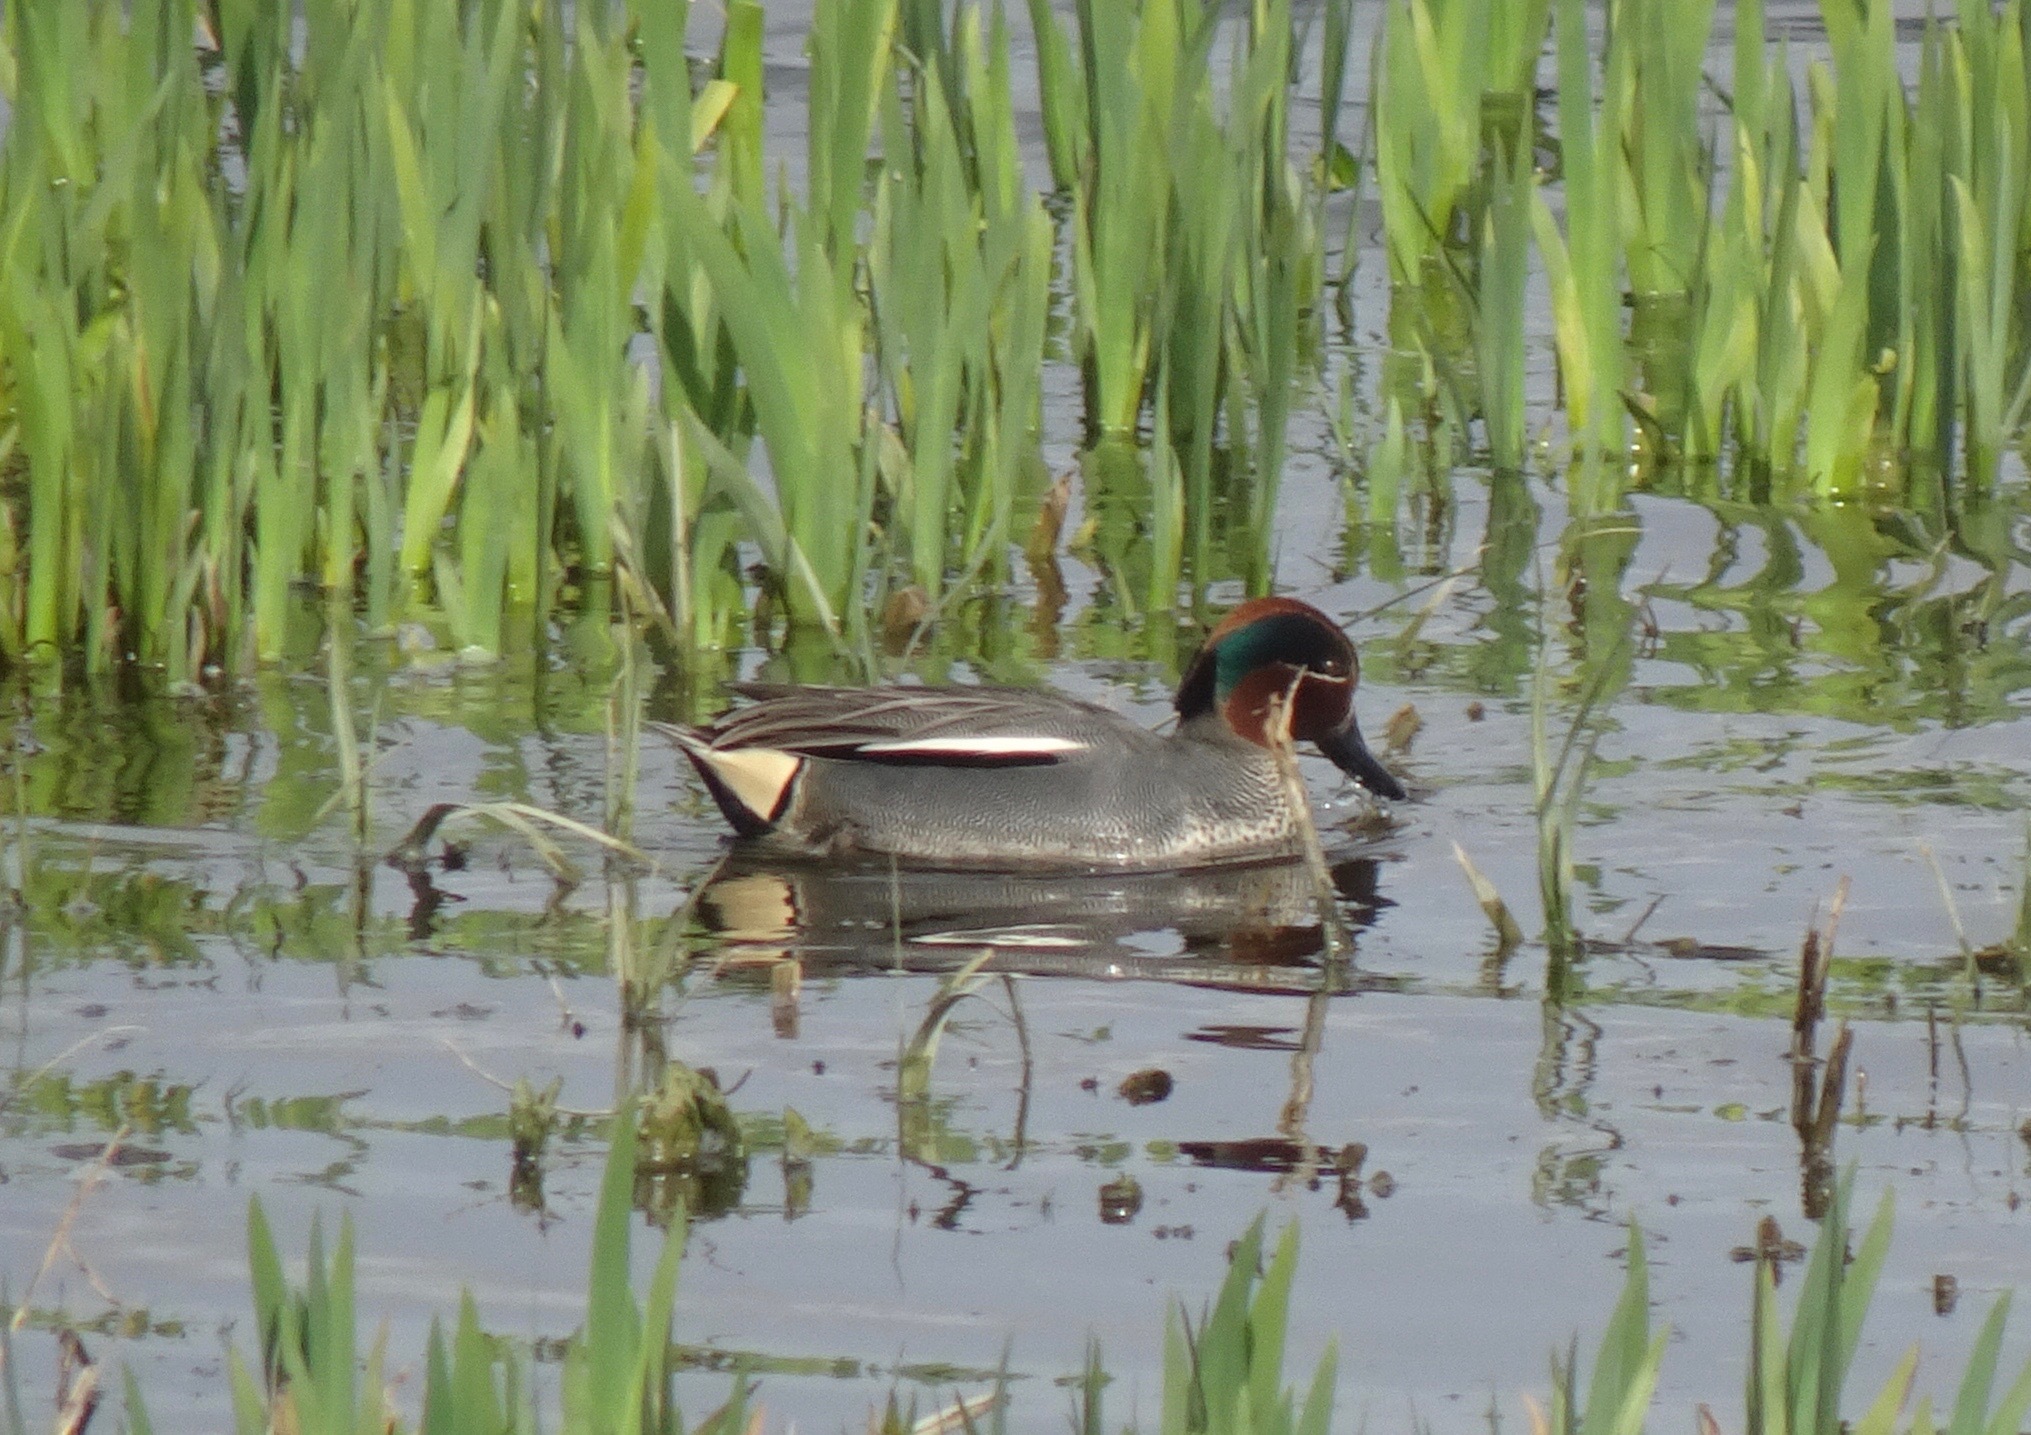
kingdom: Animalia
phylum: Chordata
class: Aves
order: Anseriformes
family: Anatidae
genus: Anas
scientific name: Anas crecca
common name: Eurasian teal
